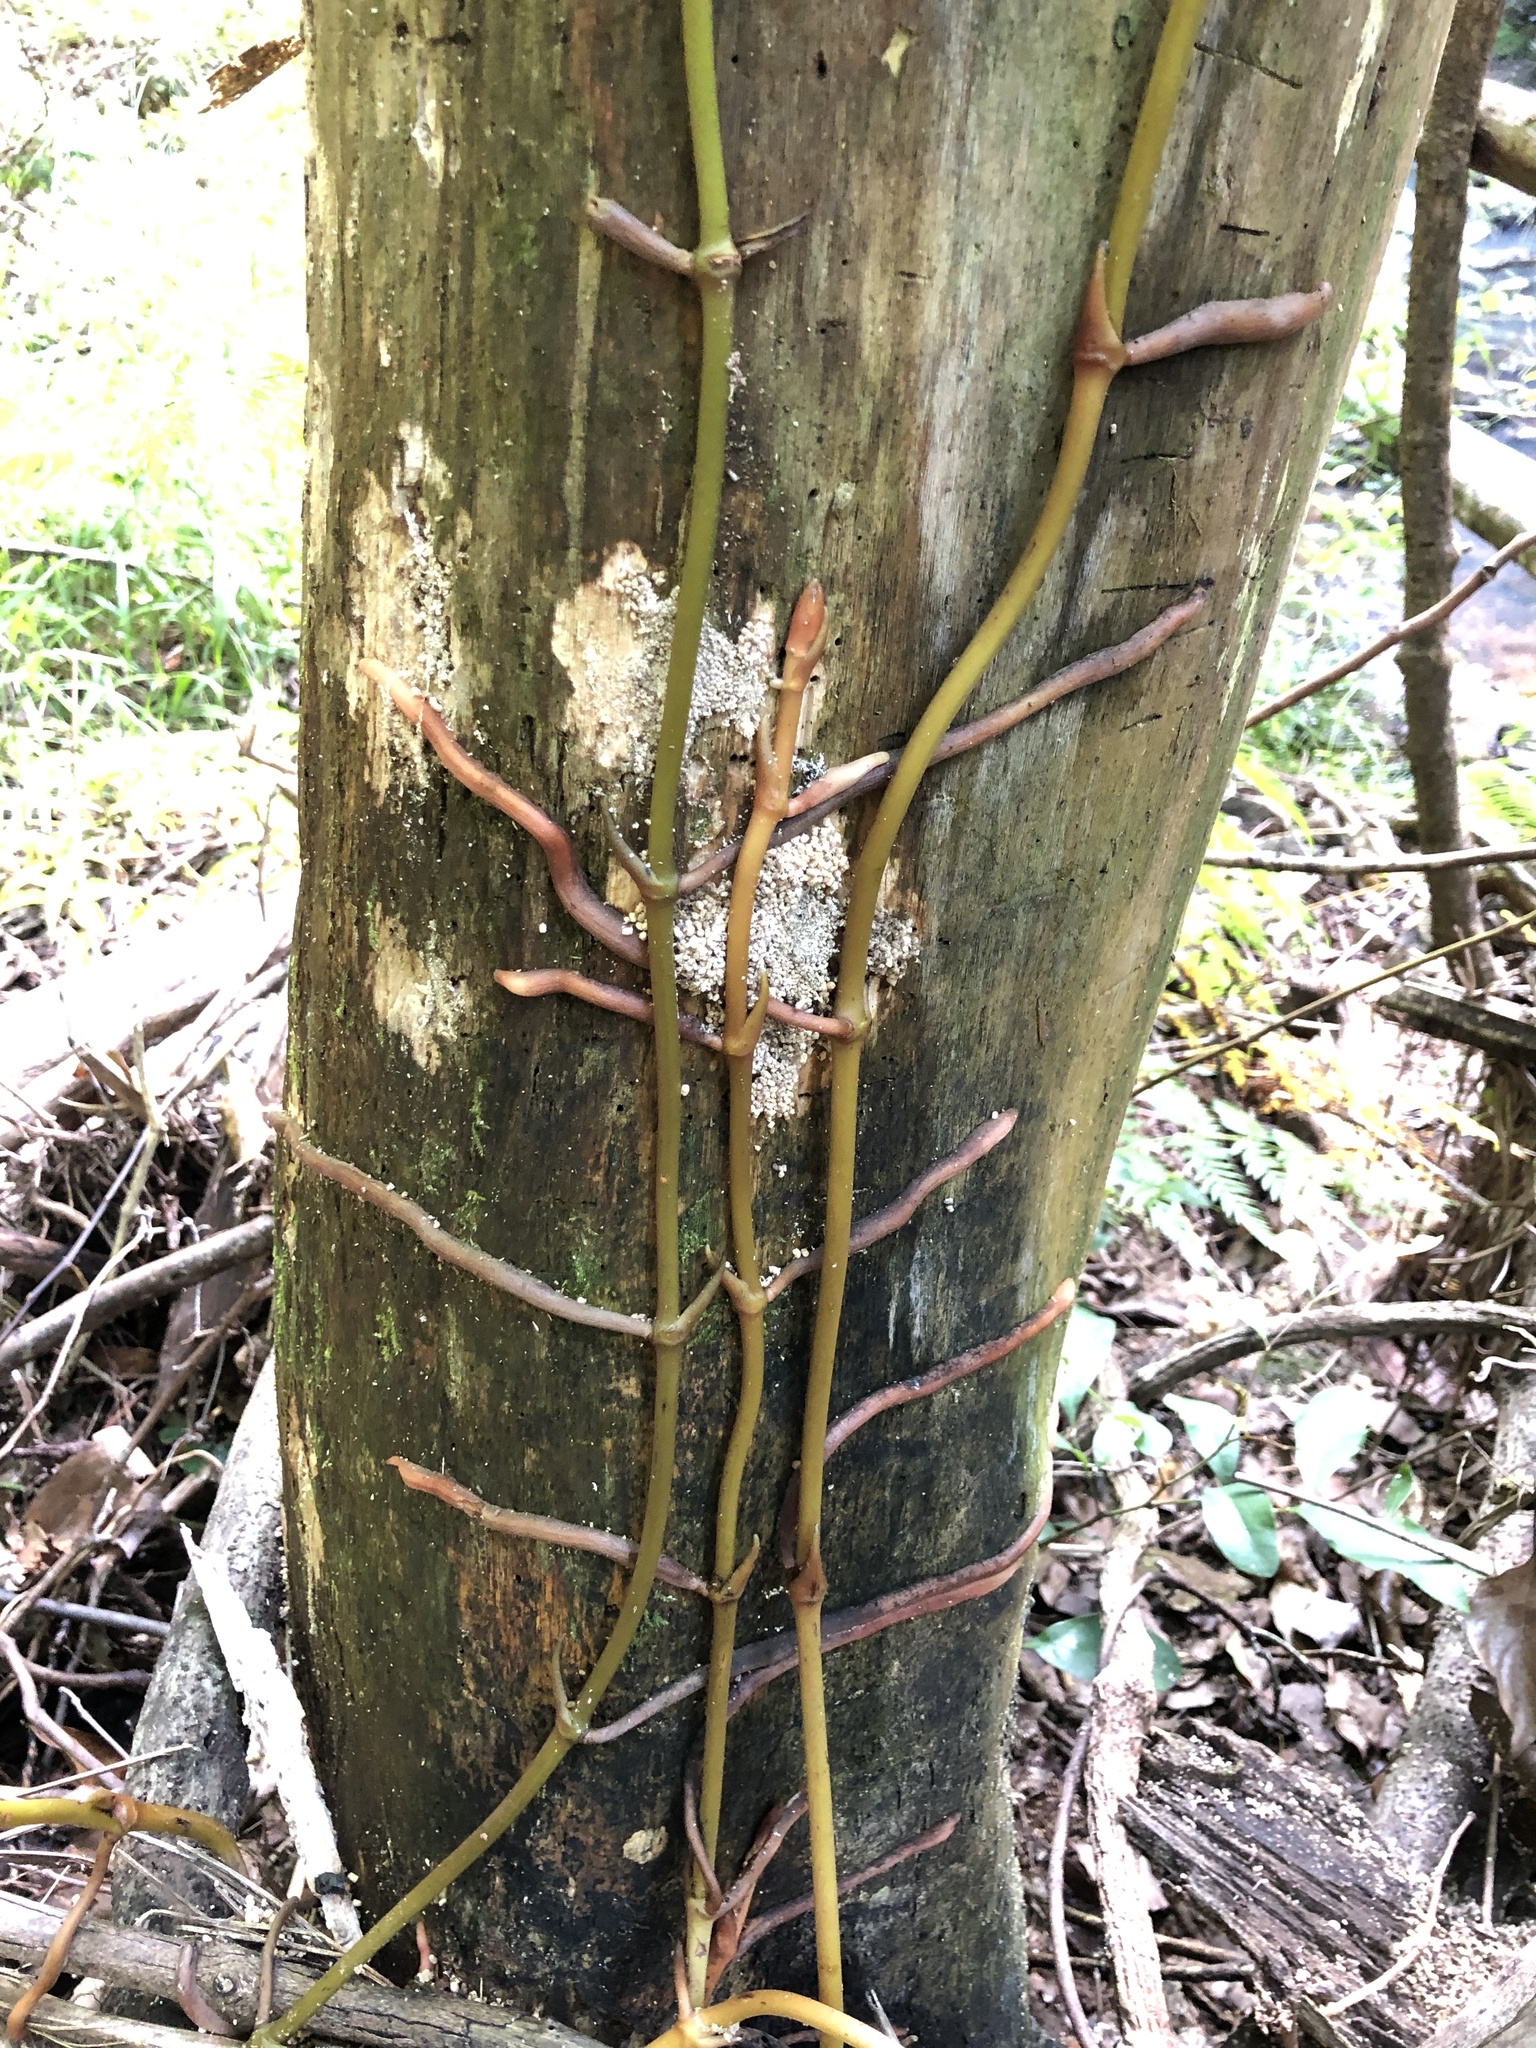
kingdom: Plantae
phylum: Tracheophyta
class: Liliopsida
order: Asparagales
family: Orchidaceae
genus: Pseudovanilla
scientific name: Pseudovanilla foliata
